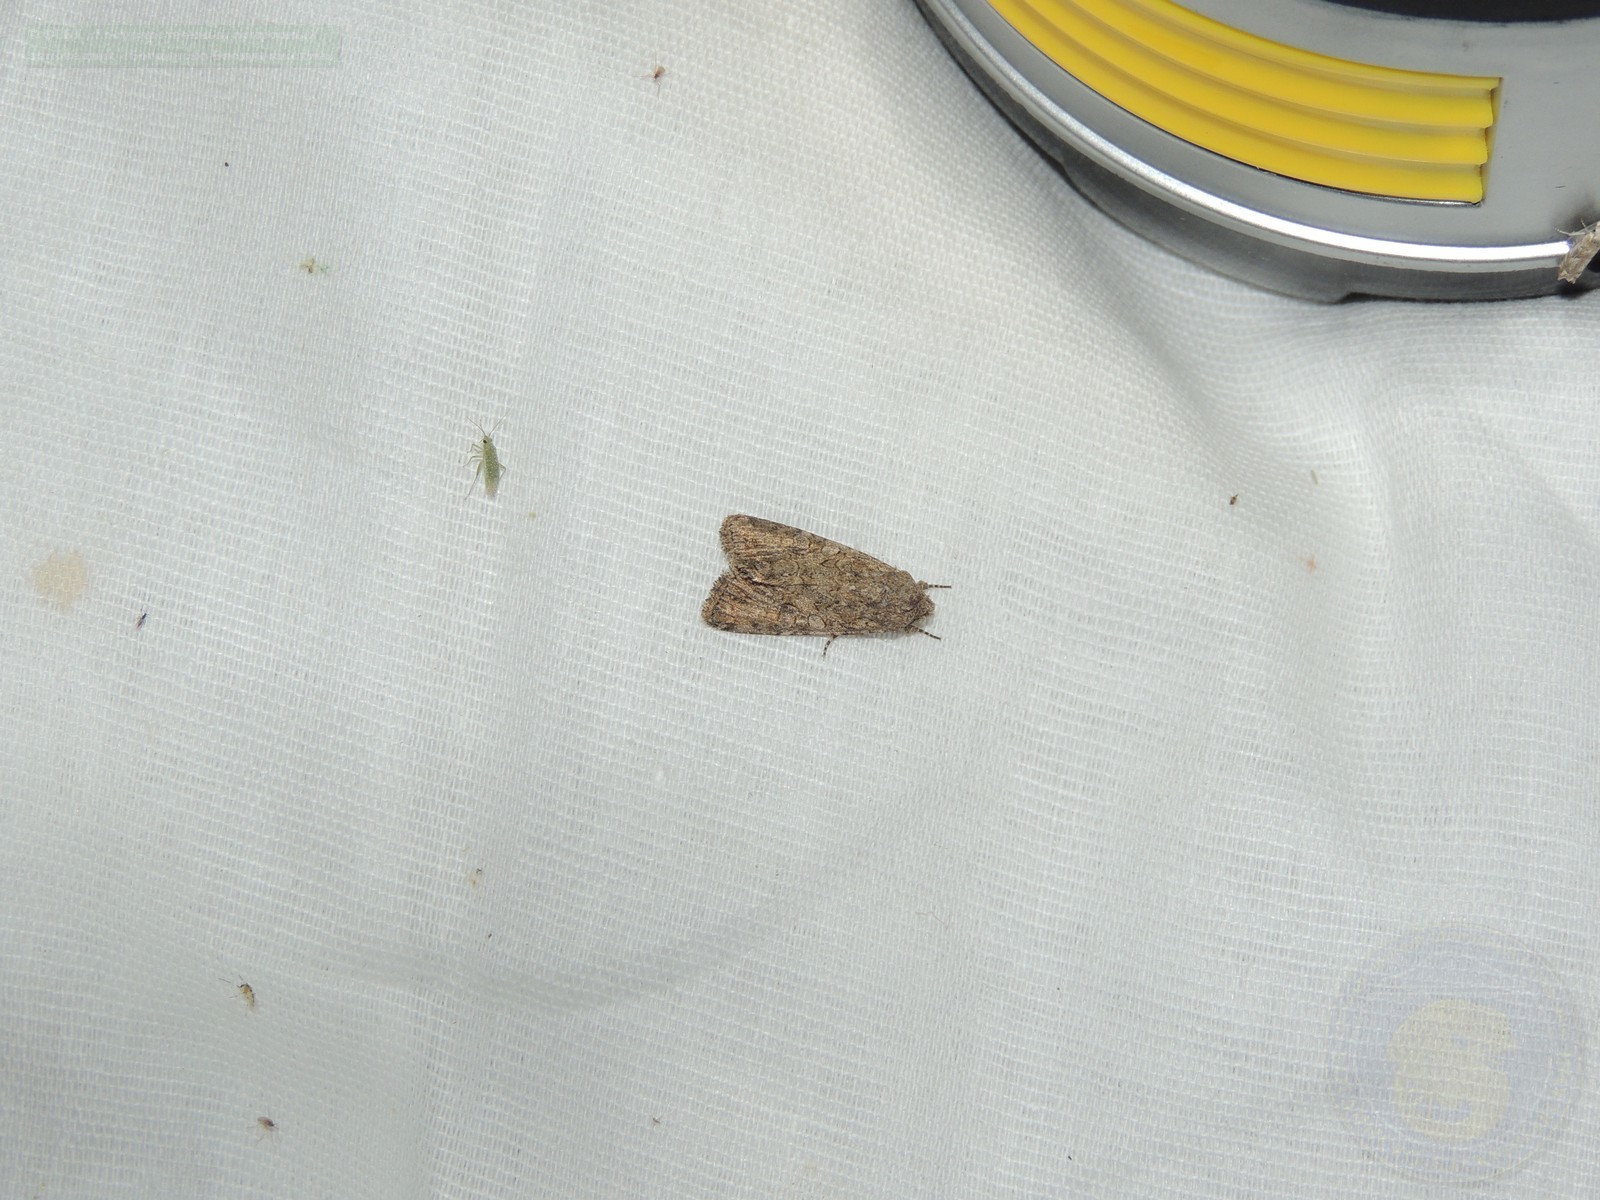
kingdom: Animalia
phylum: Arthropoda
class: Insecta
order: Lepidoptera
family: Noctuidae
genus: Anarta
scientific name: Anarta trifolii
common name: Clover cutworm moth
